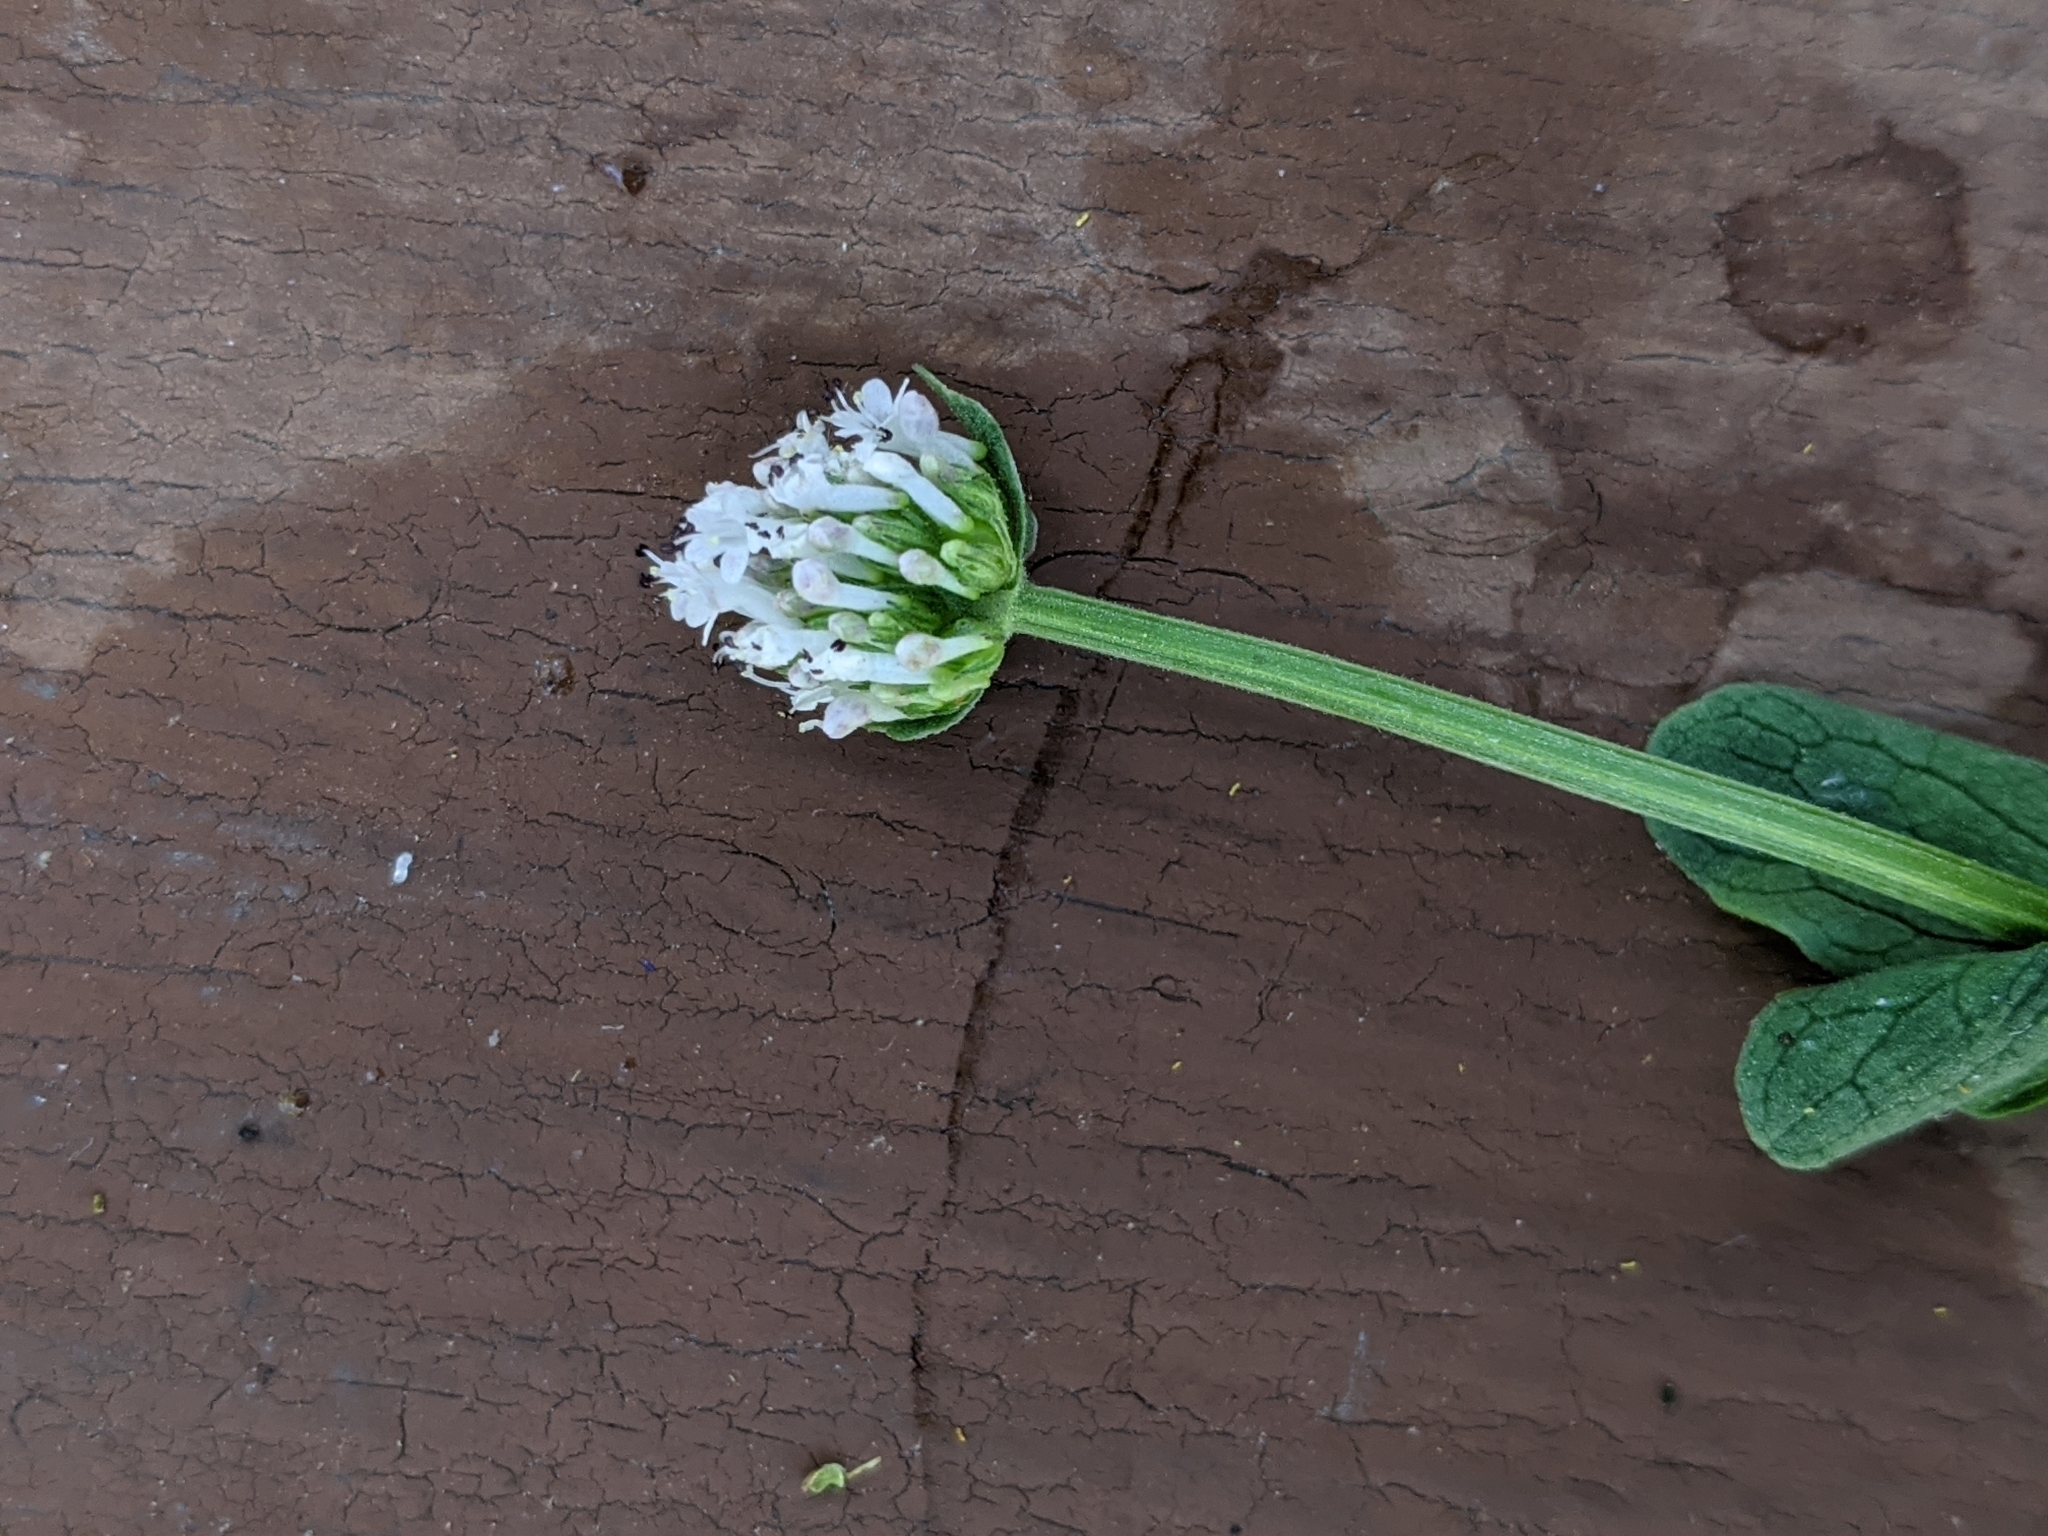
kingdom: Plantae
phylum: Tracheophyta
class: Magnoliopsida
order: Dipsacales
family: Caprifoliaceae
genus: Plectritis
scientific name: Plectritis macroptera
